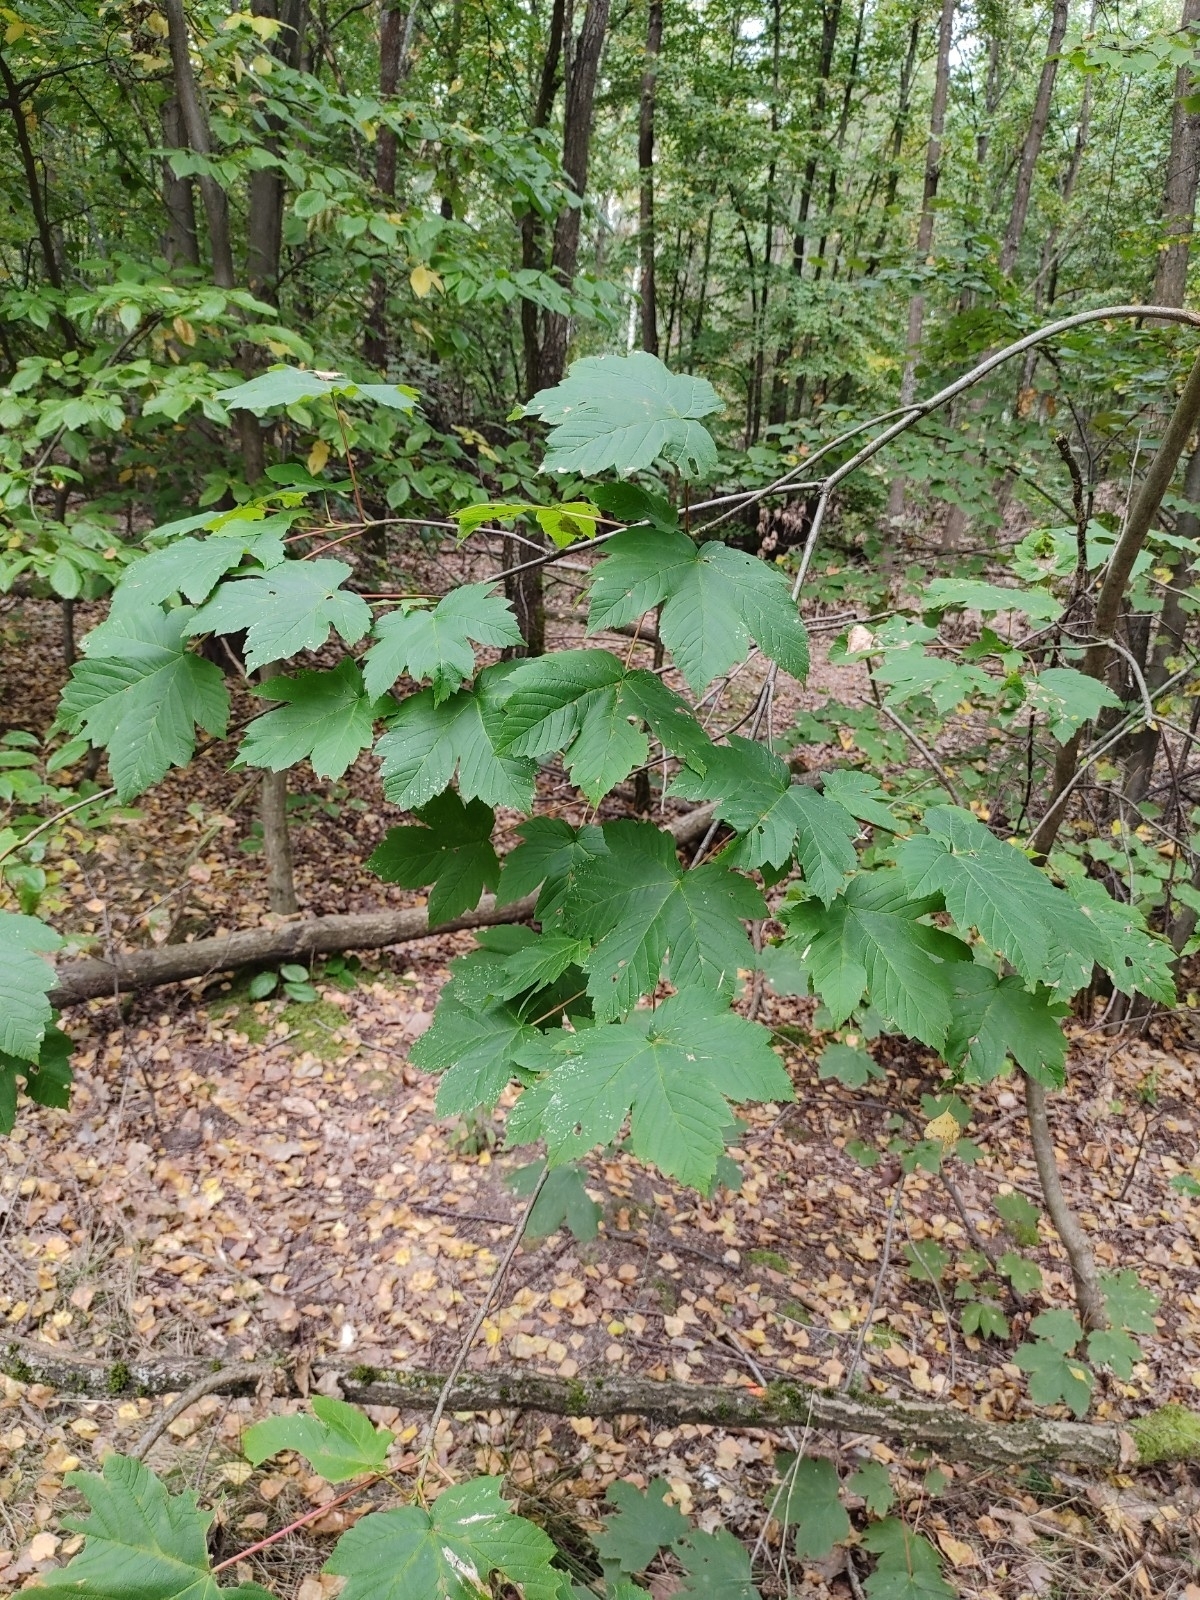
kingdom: Plantae
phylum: Tracheophyta
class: Magnoliopsida
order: Sapindales
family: Sapindaceae
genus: Acer
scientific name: Acer pseudoplatanus
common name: Sycamore
